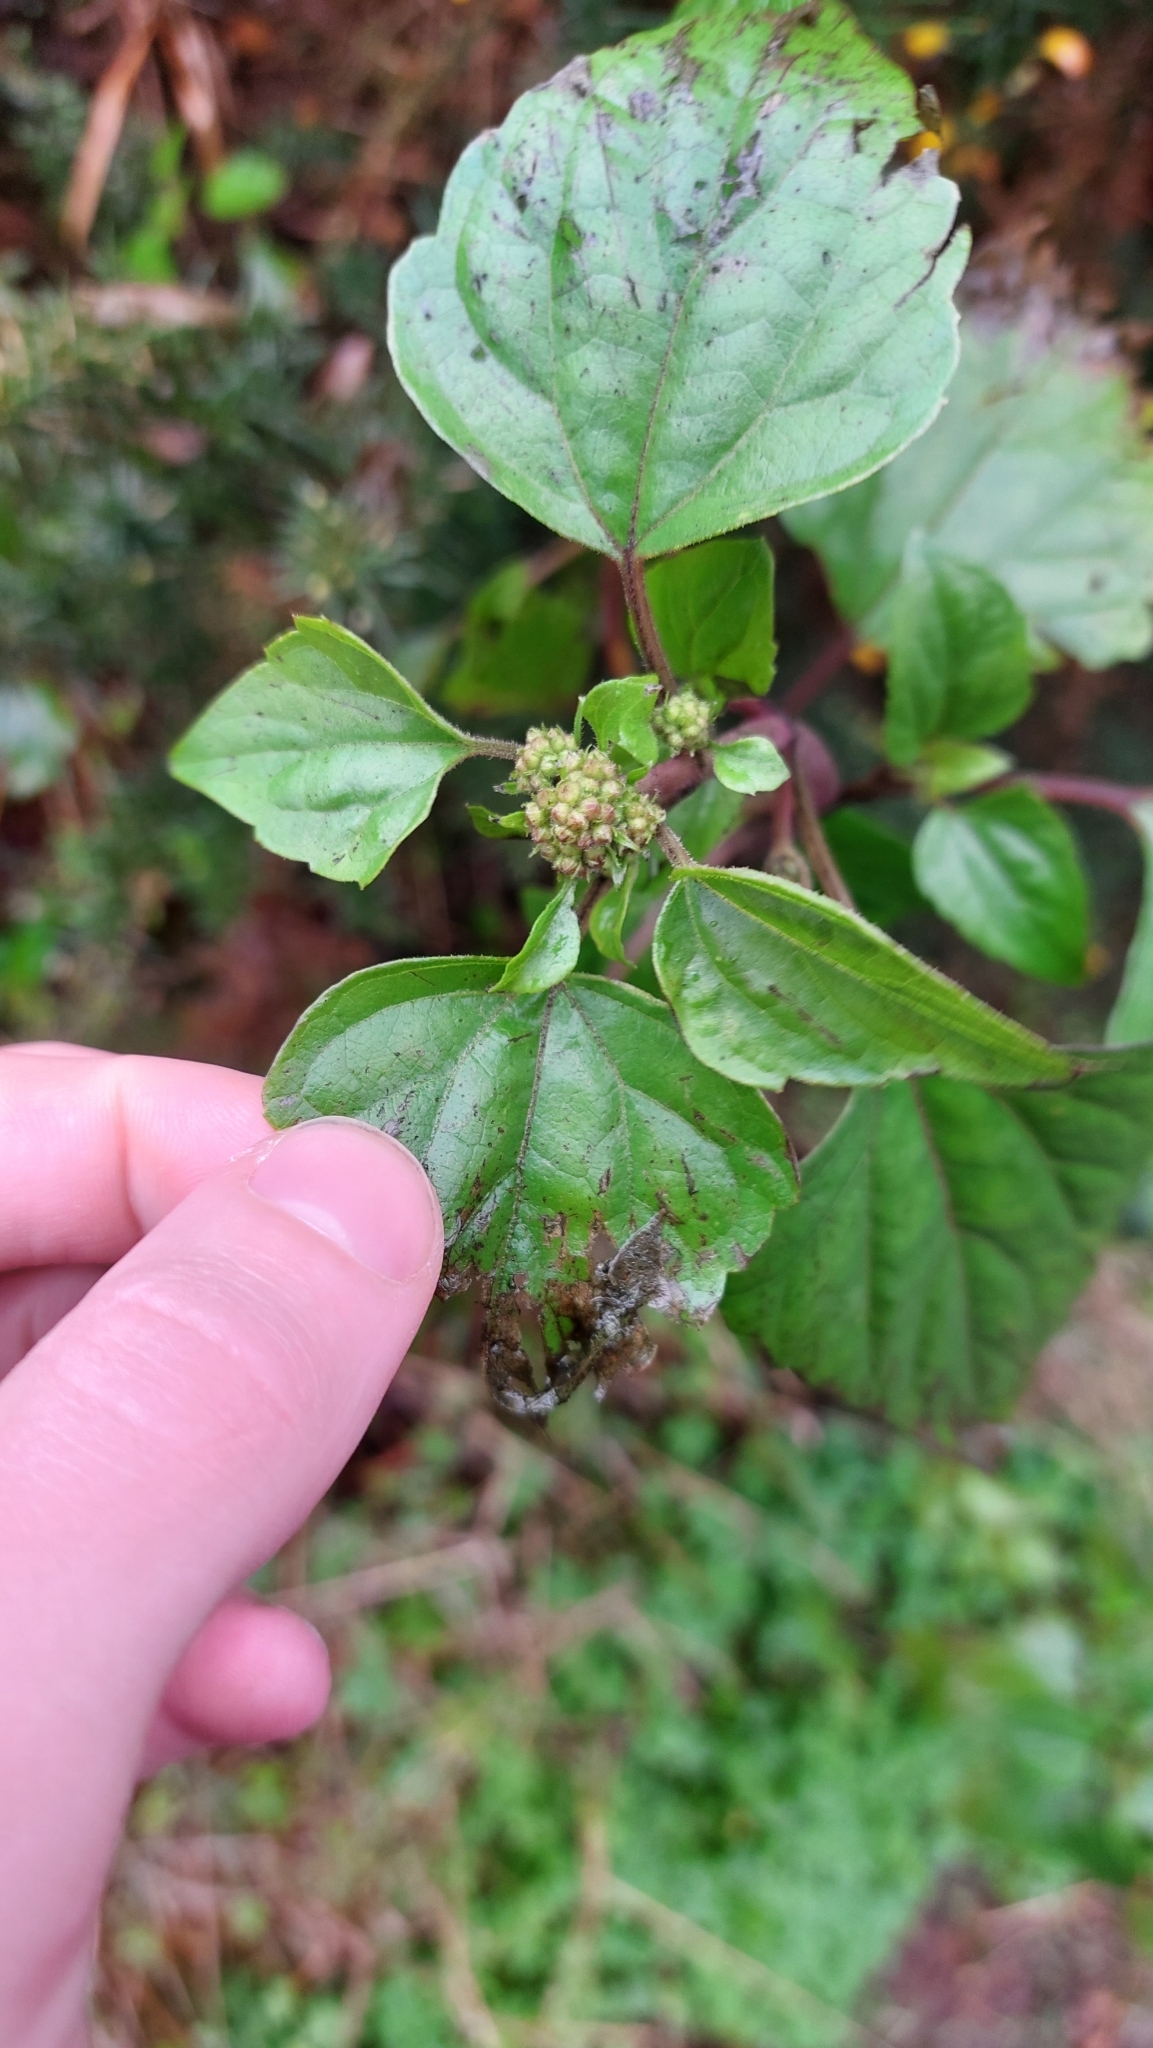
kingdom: Plantae
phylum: Tracheophyta
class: Magnoliopsida
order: Asterales
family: Asteraceae
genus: Ageratina
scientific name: Ageratina adenophora
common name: Sticky snakeroot
